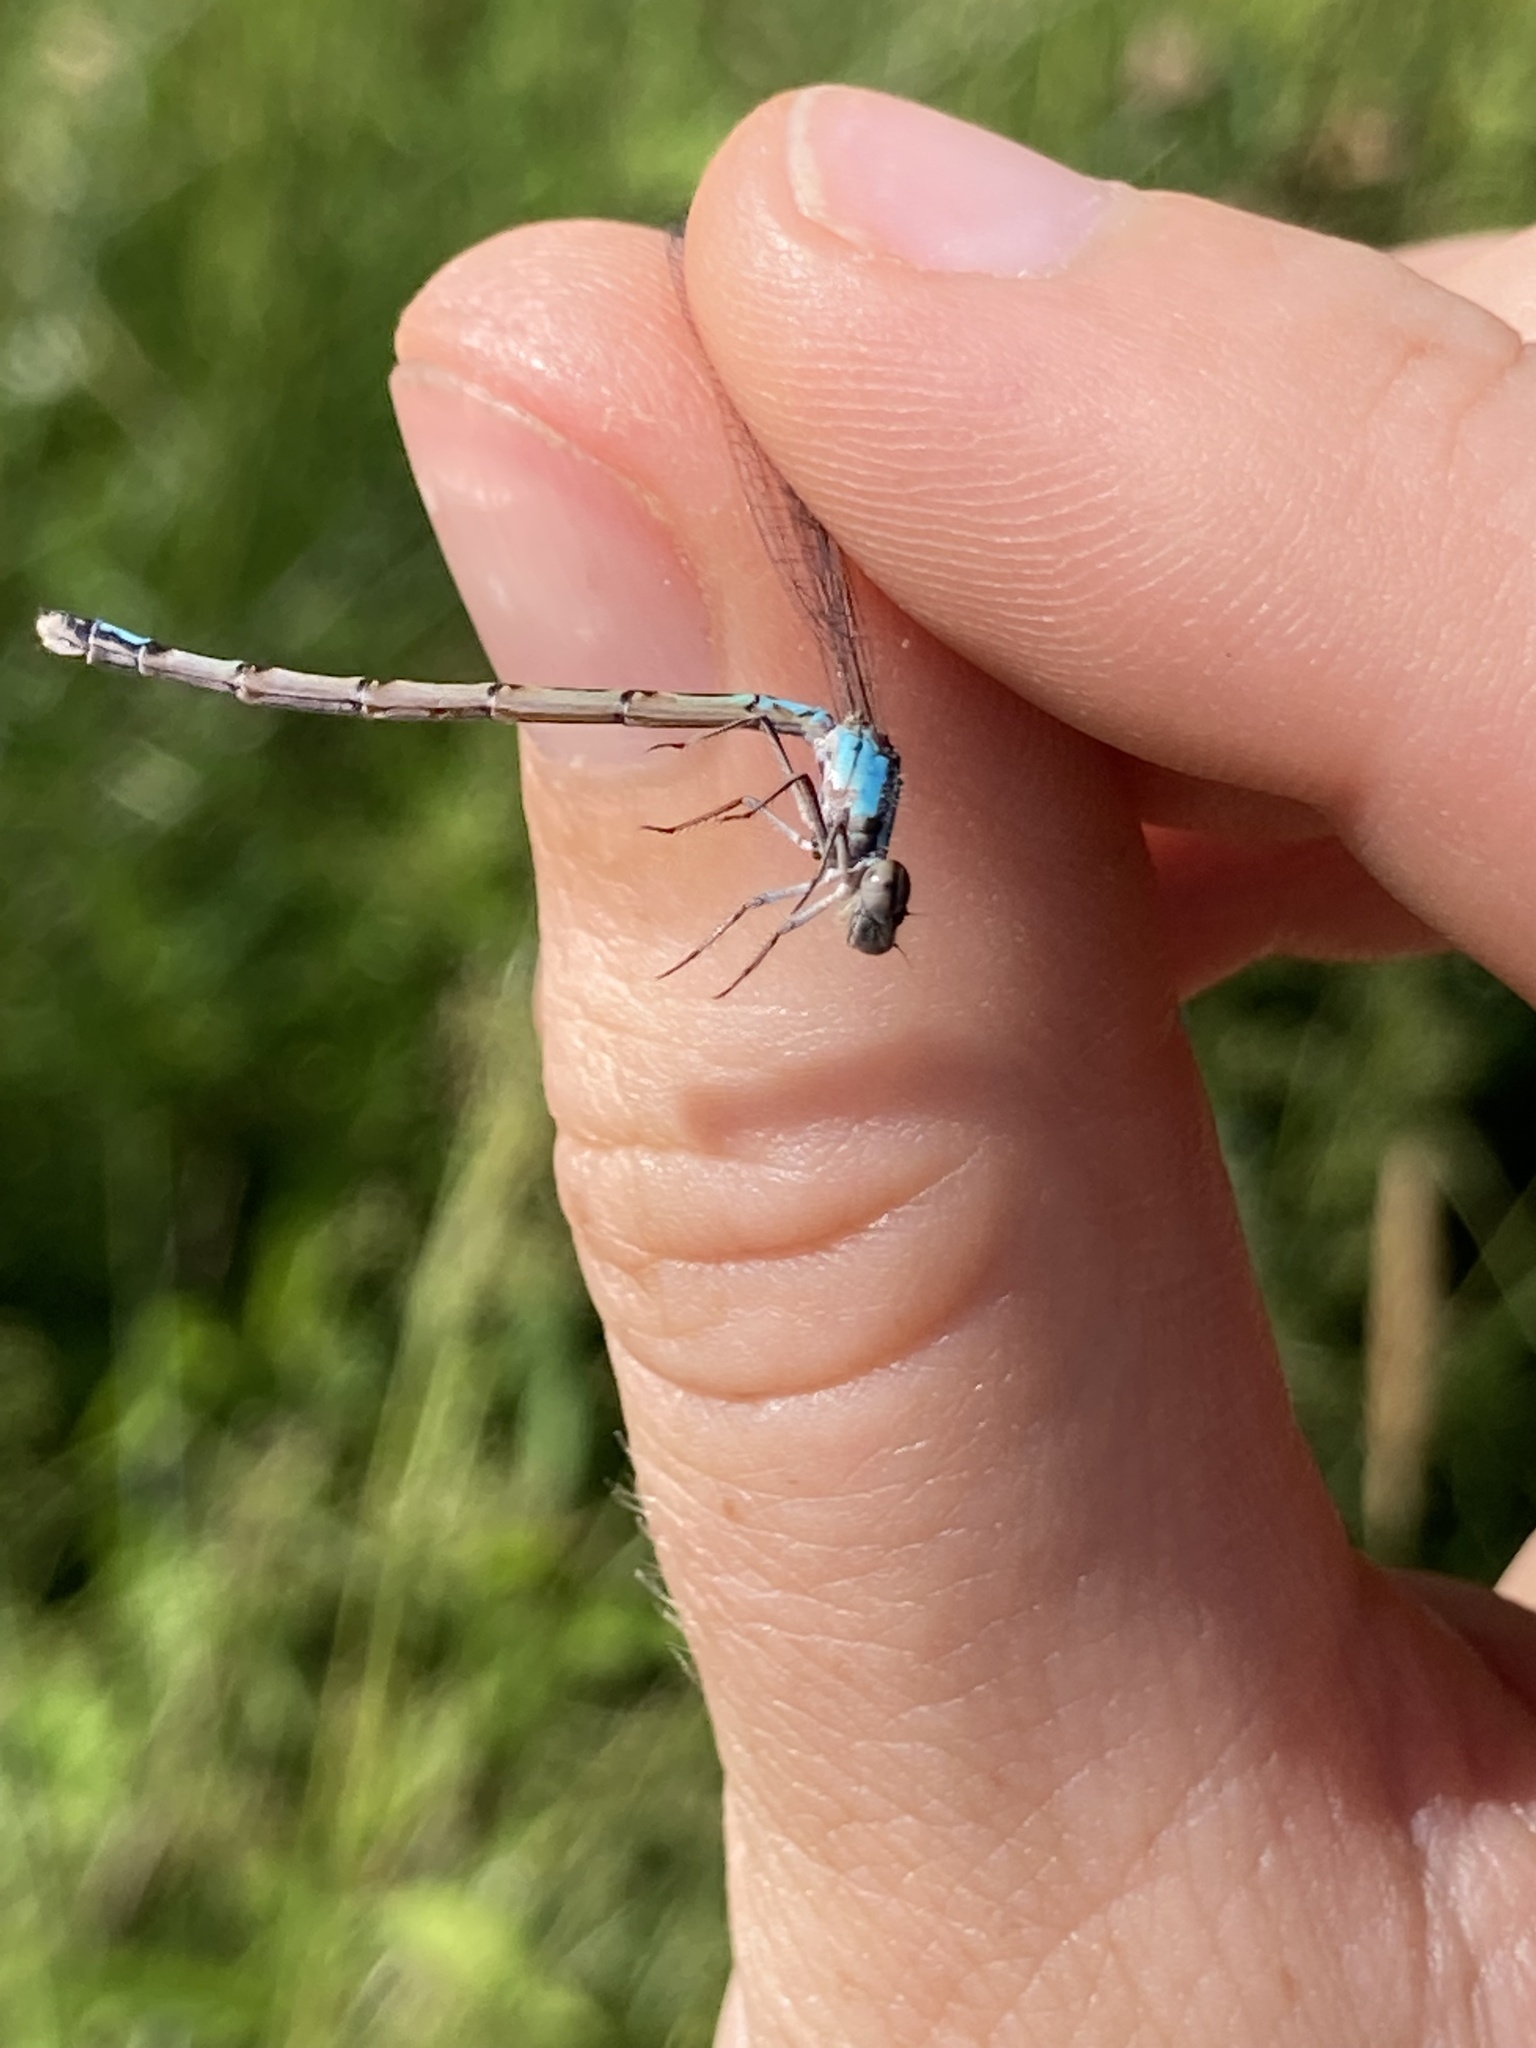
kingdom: Animalia
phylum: Arthropoda
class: Insecta
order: Odonata
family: Coenagrionidae
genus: Enallagma
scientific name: Enallagma geminatum
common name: Skimming bluet
